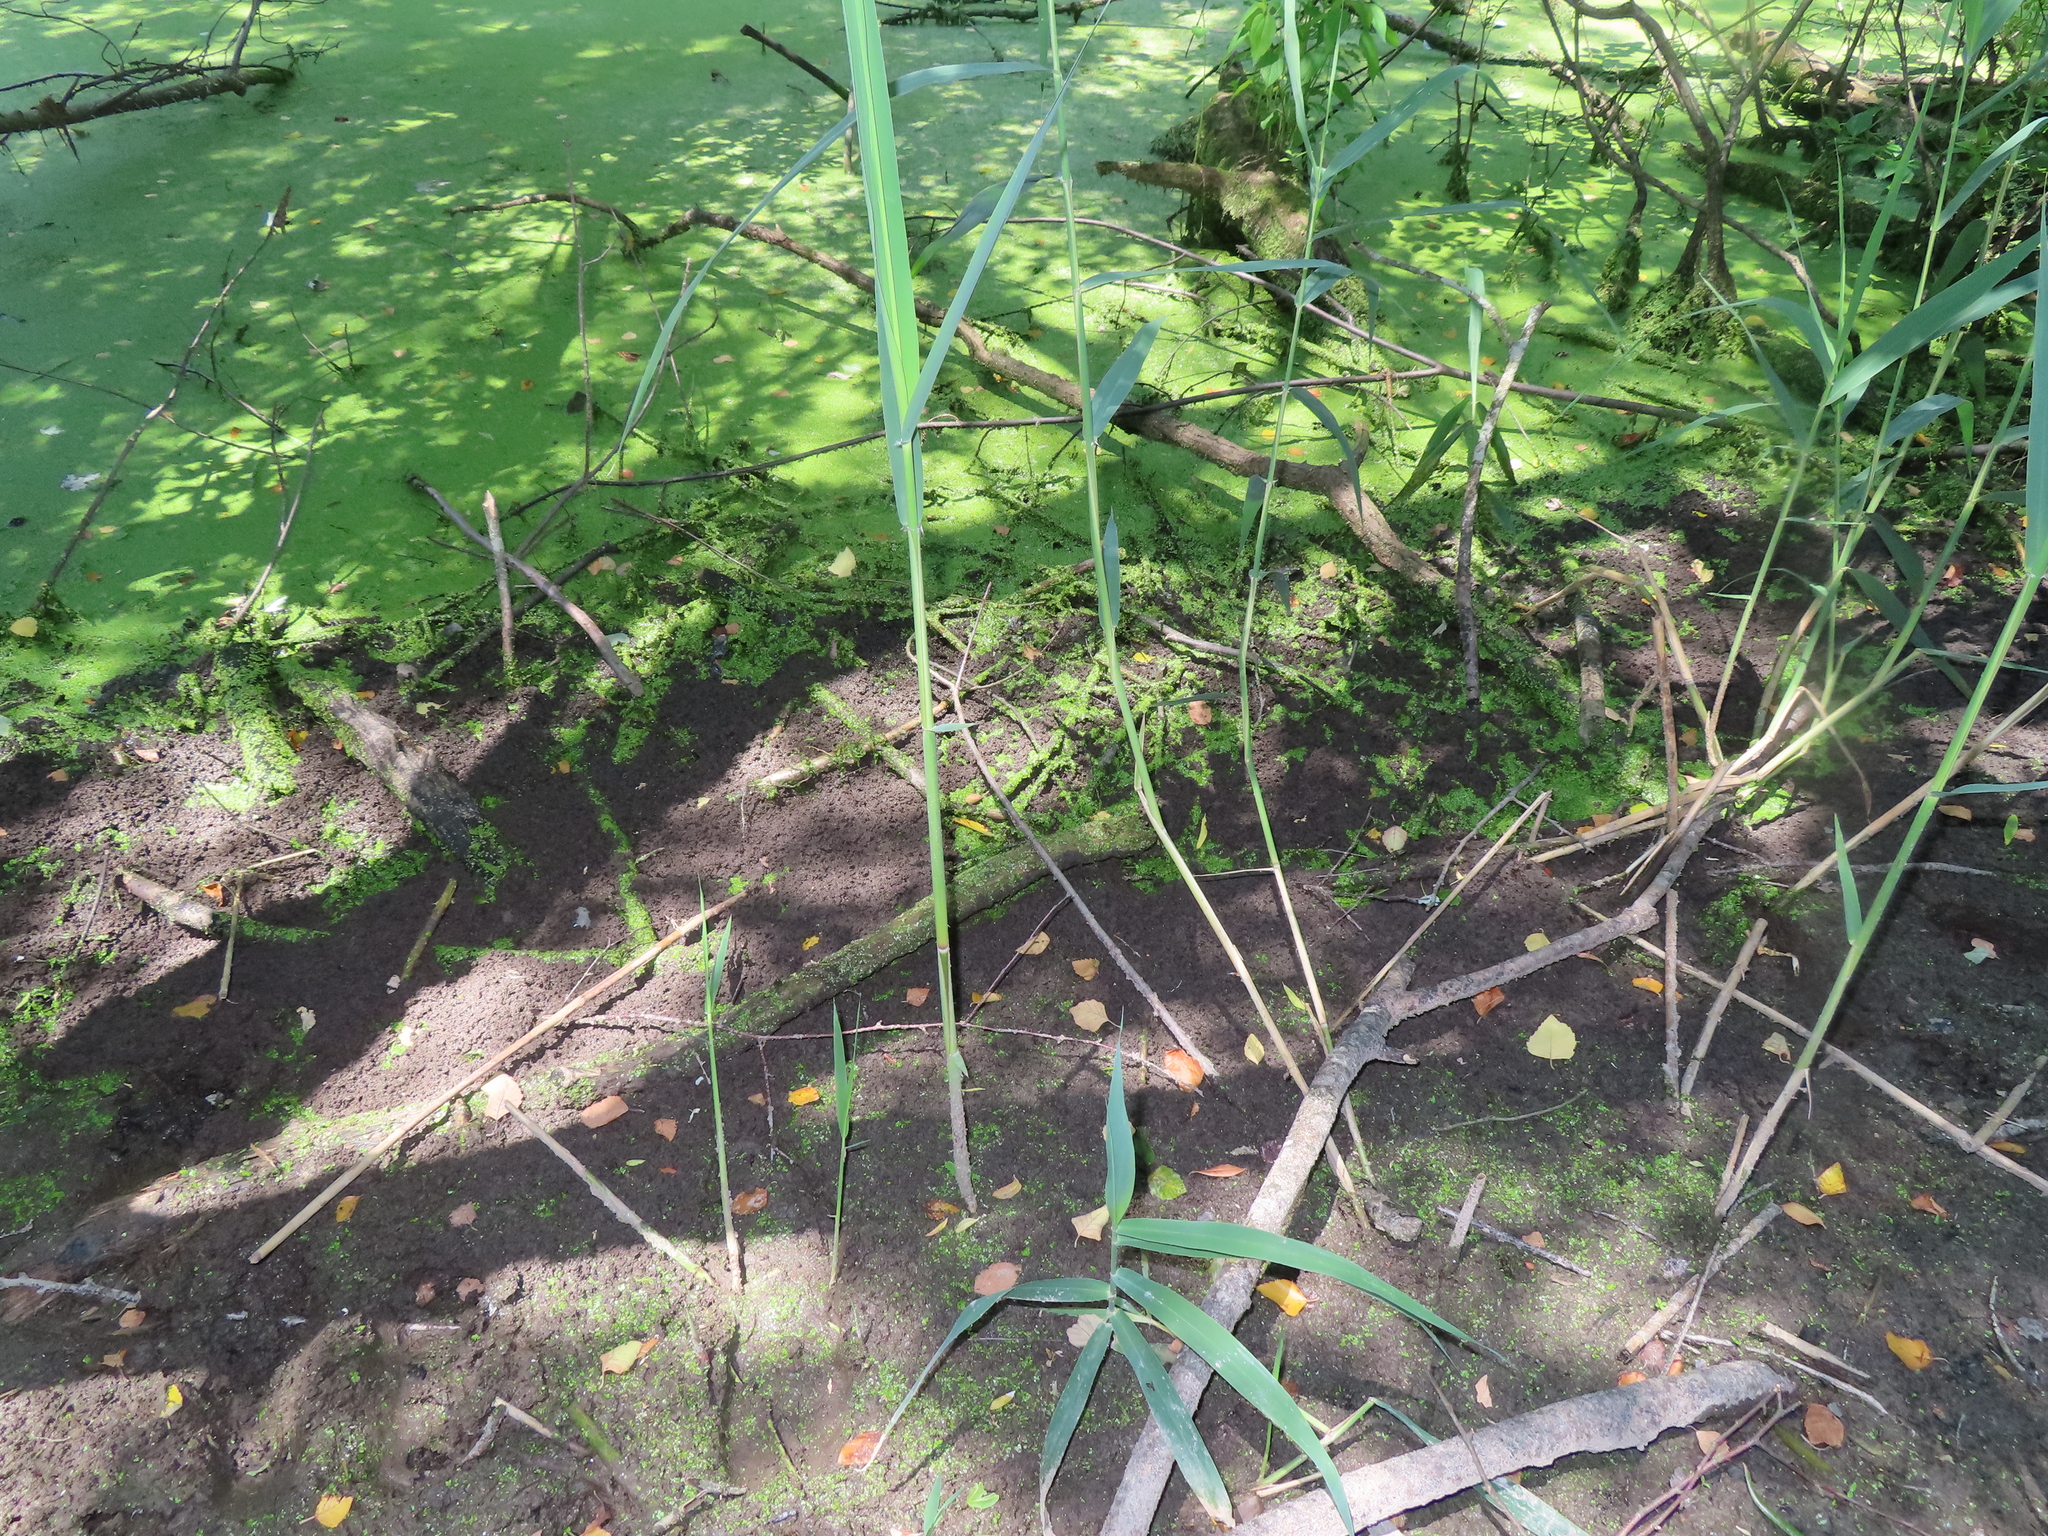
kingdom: Plantae
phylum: Tracheophyta
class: Liliopsida
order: Poales
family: Poaceae
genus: Phragmites
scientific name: Phragmites australis
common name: Common reed
